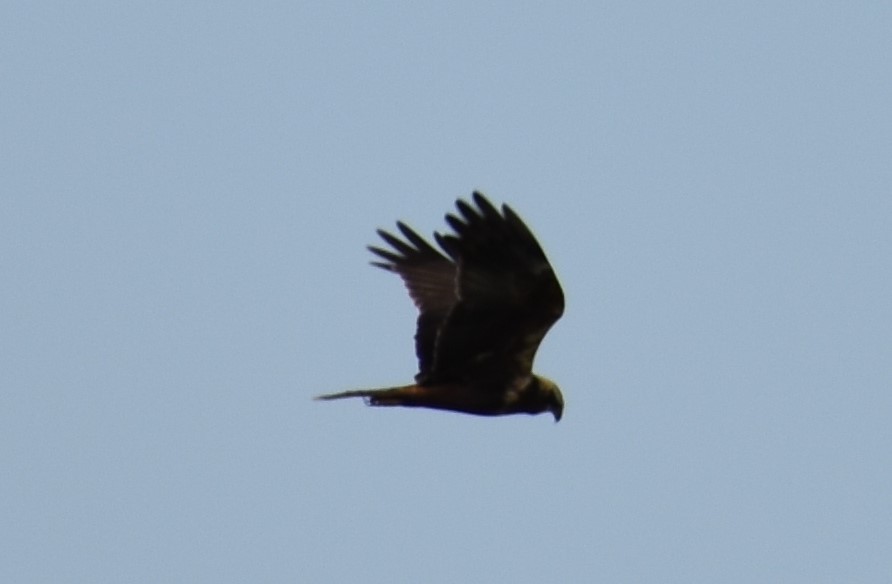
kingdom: Animalia
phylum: Chordata
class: Aves
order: Accipitriformes
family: Accipitridae
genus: Circus
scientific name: Circus aeruginosus
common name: Western marsh harrier
